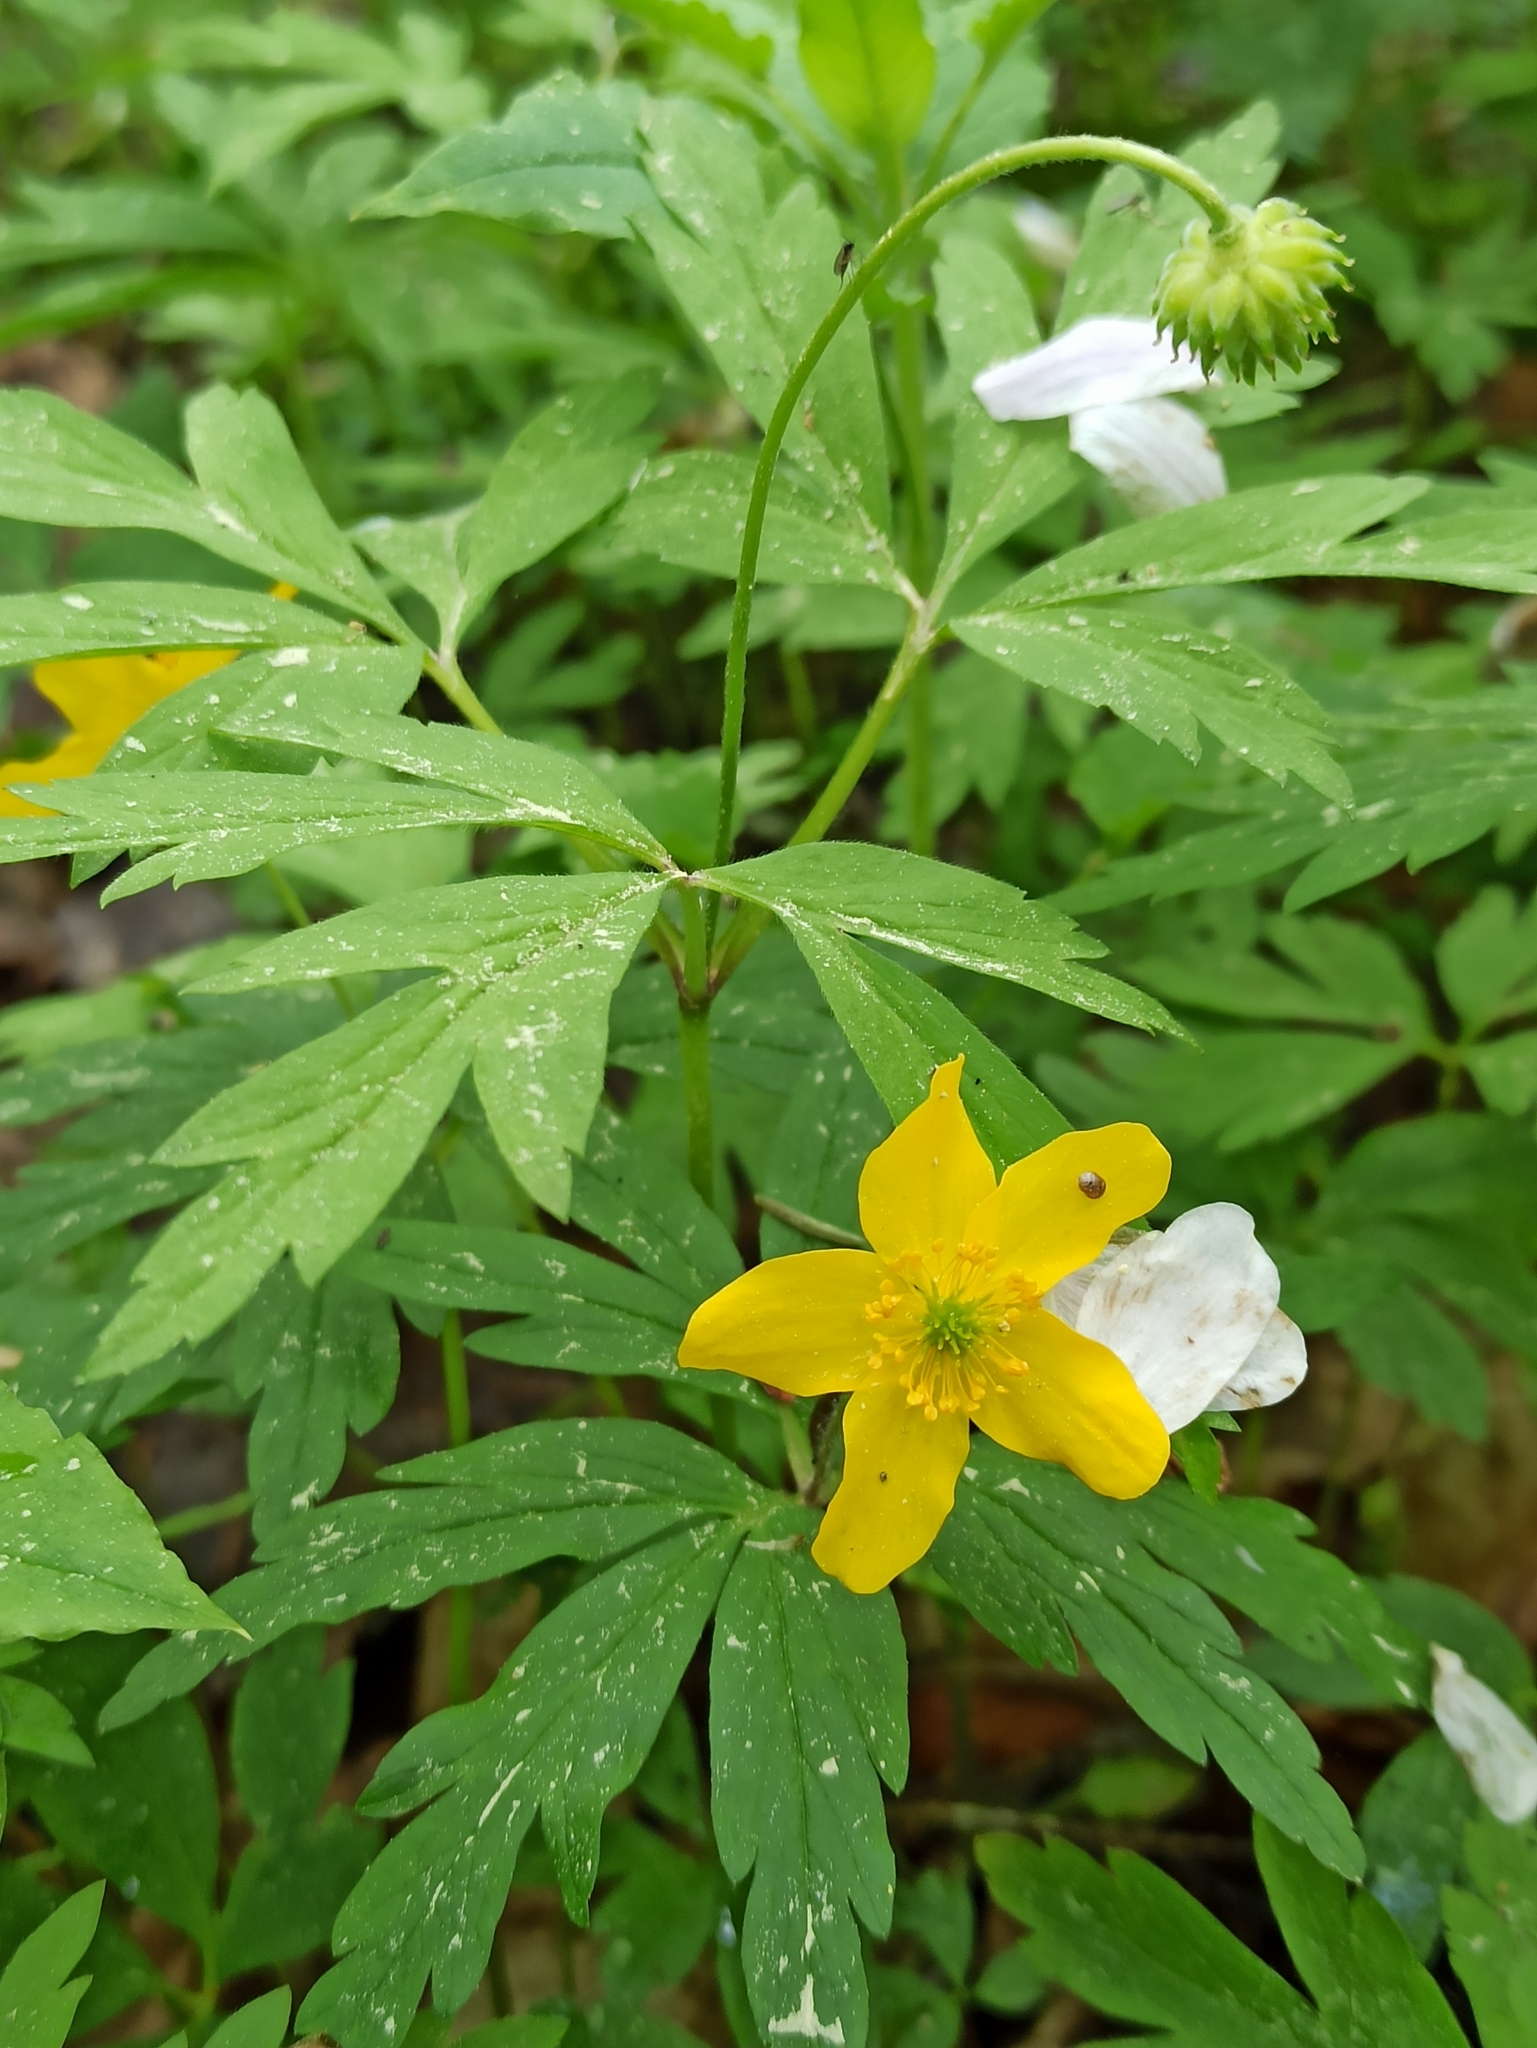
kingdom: Plantae
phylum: Tracheophyta
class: Magnoliopsida
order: Ranunculales
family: Ranunculaceae
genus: Anemone
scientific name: Anemone ranunculoides
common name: Yellow anemone
